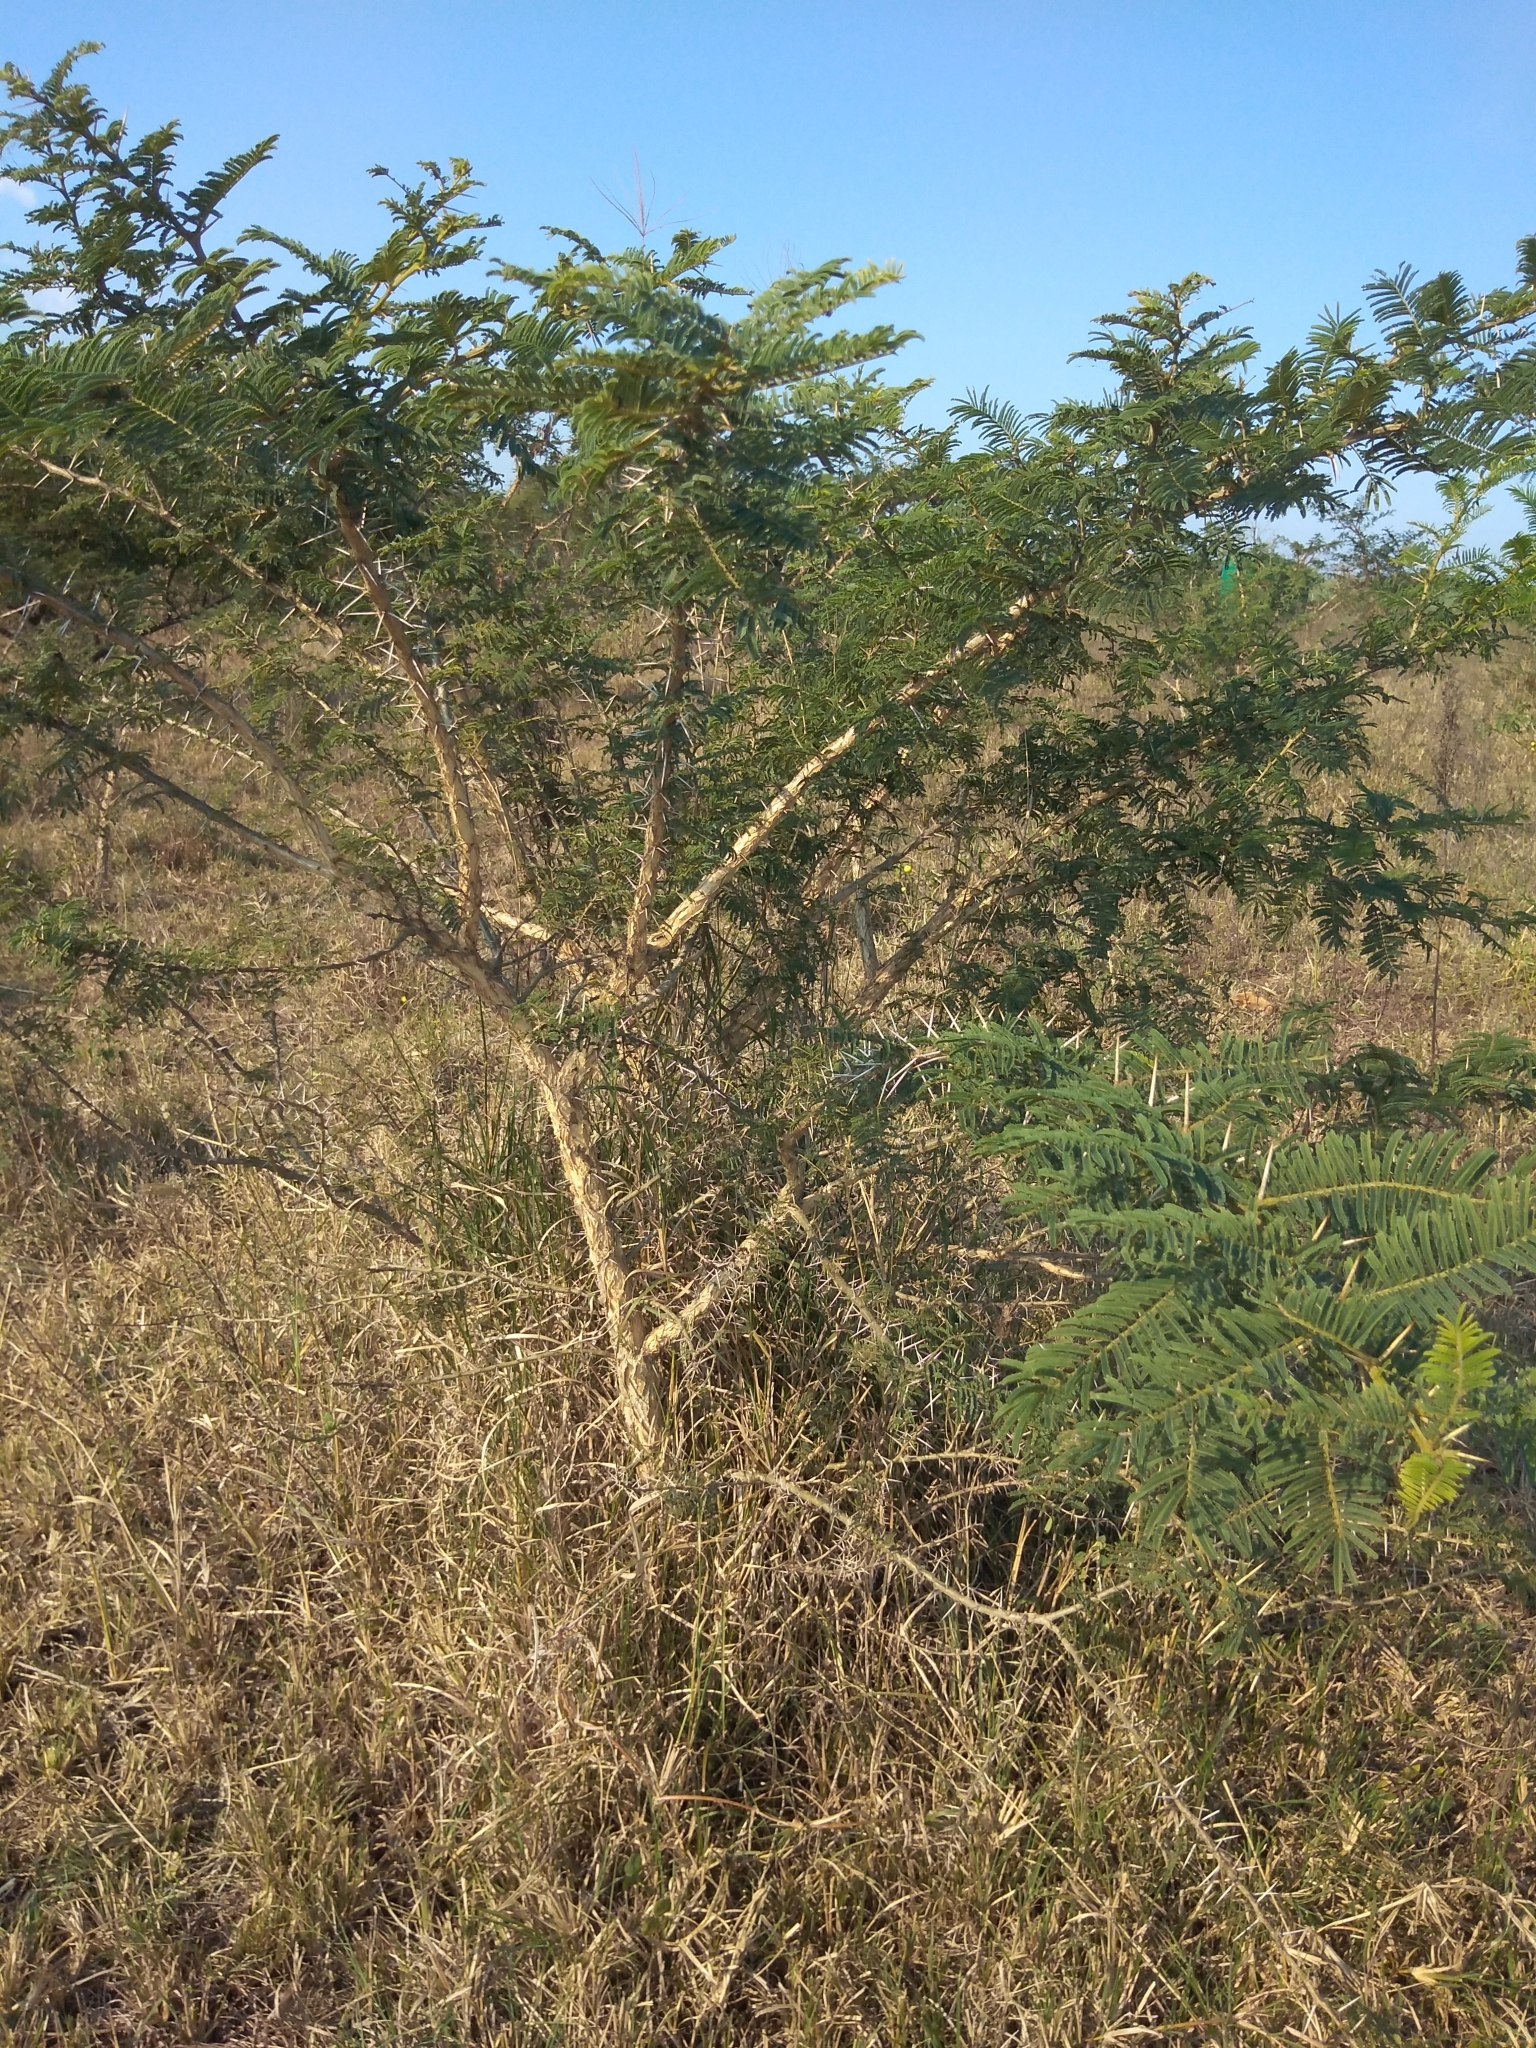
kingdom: Plantae
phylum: Tracheophyta
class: Magnoliopsida
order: Fabales
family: Fabaceae
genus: Vachellia
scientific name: Vachellia sieberiana
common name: Flat-topped thorn
